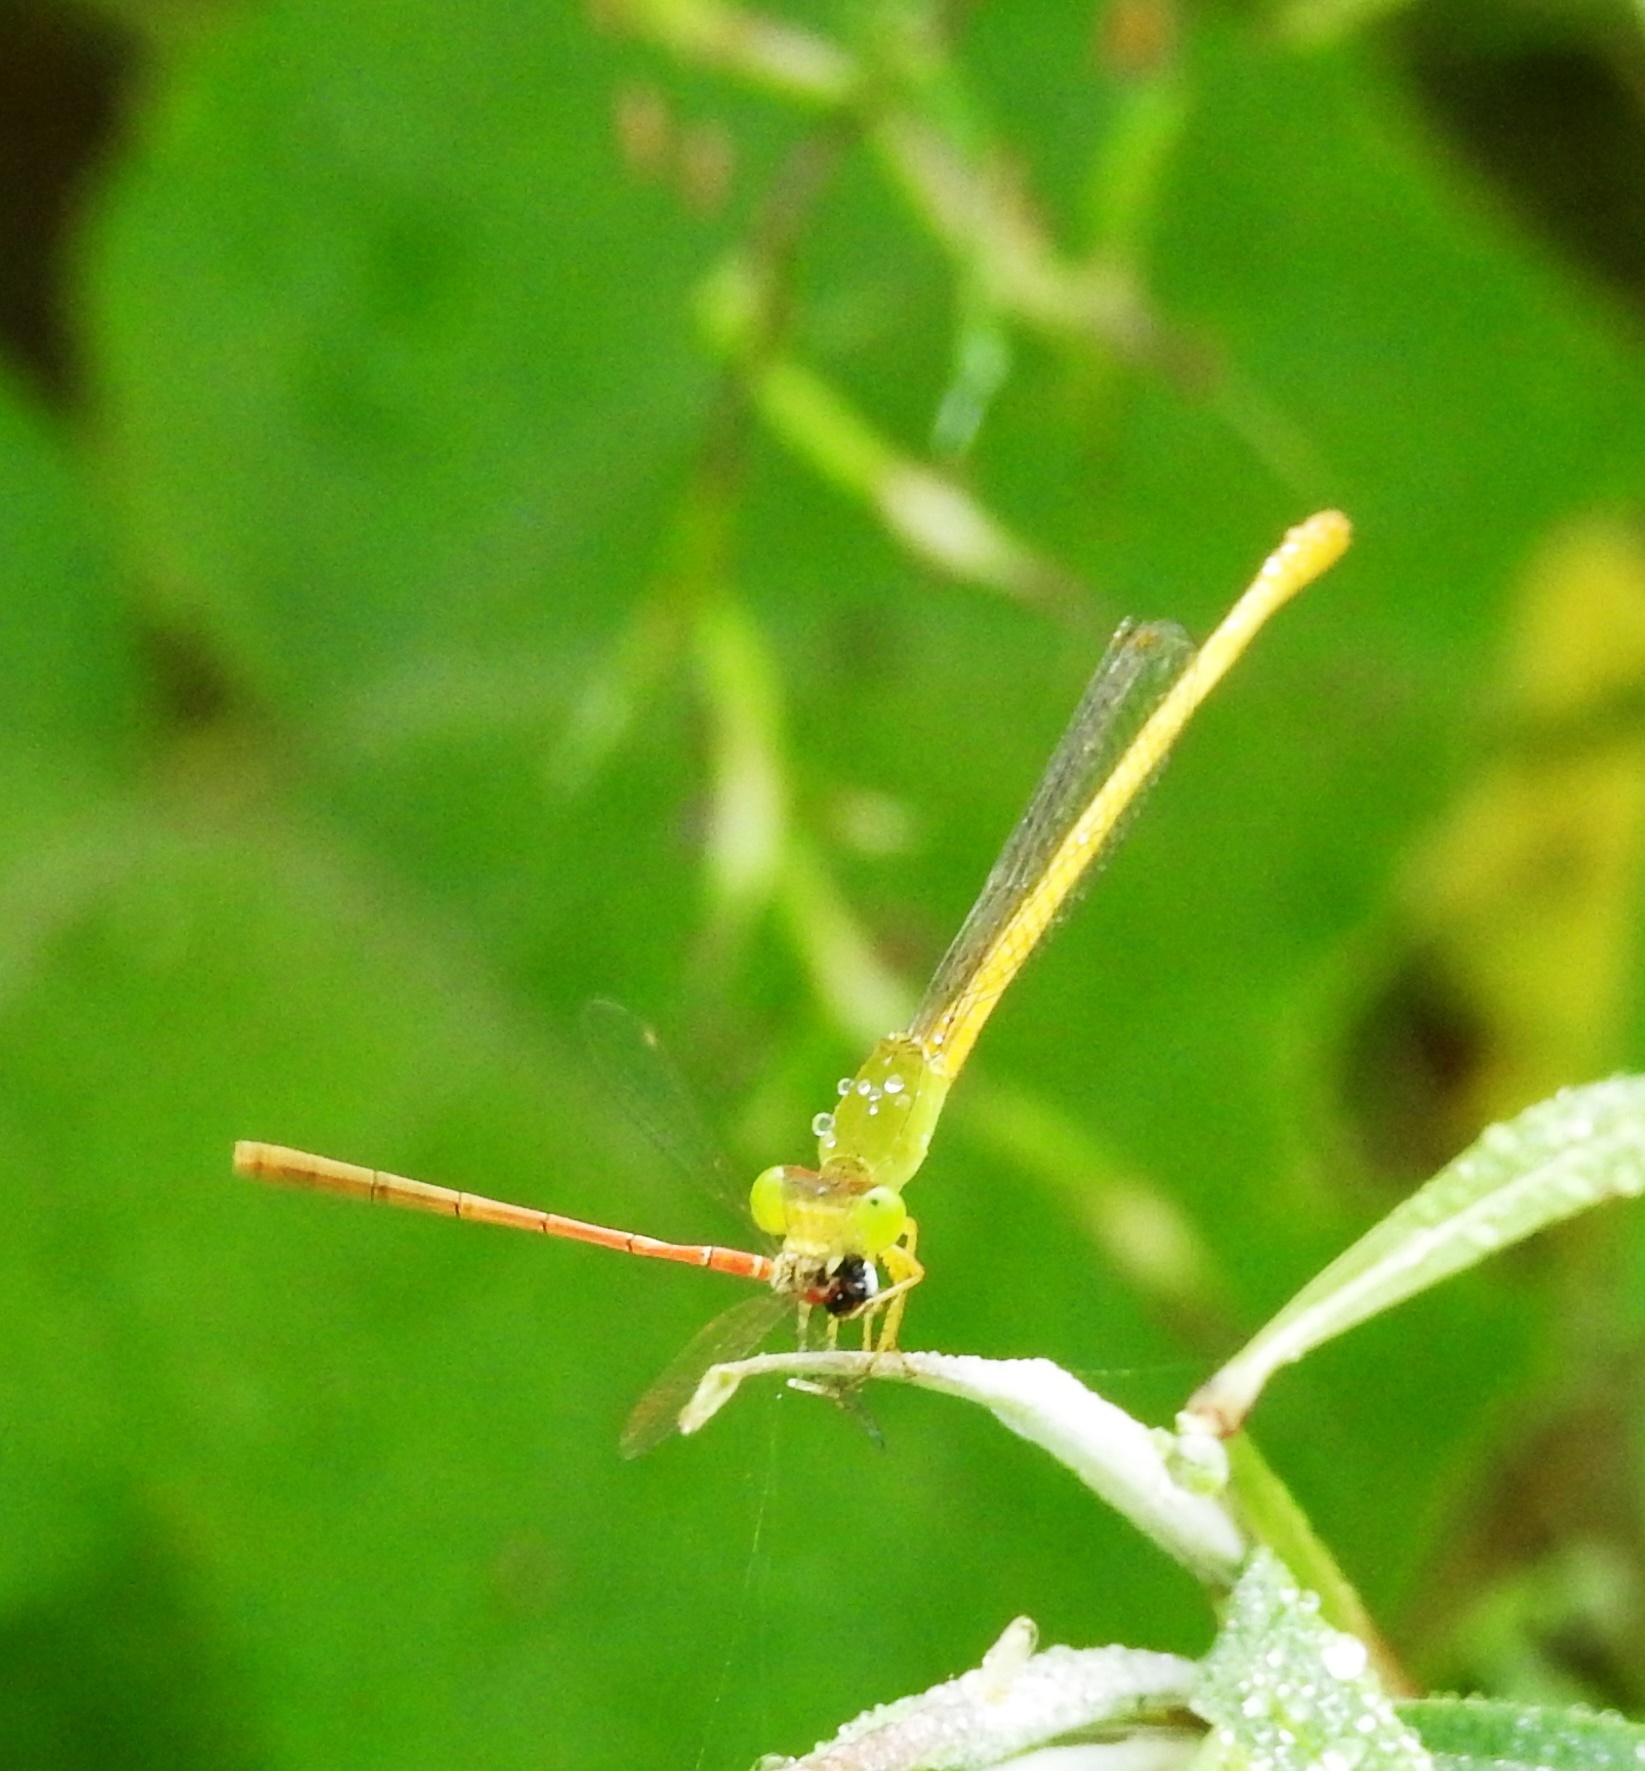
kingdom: Animalia
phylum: Arthropoda
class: Insecta
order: Odonata
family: Coenagrionidae
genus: Ceriagrion
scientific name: Ceriagrion coromandelianum
